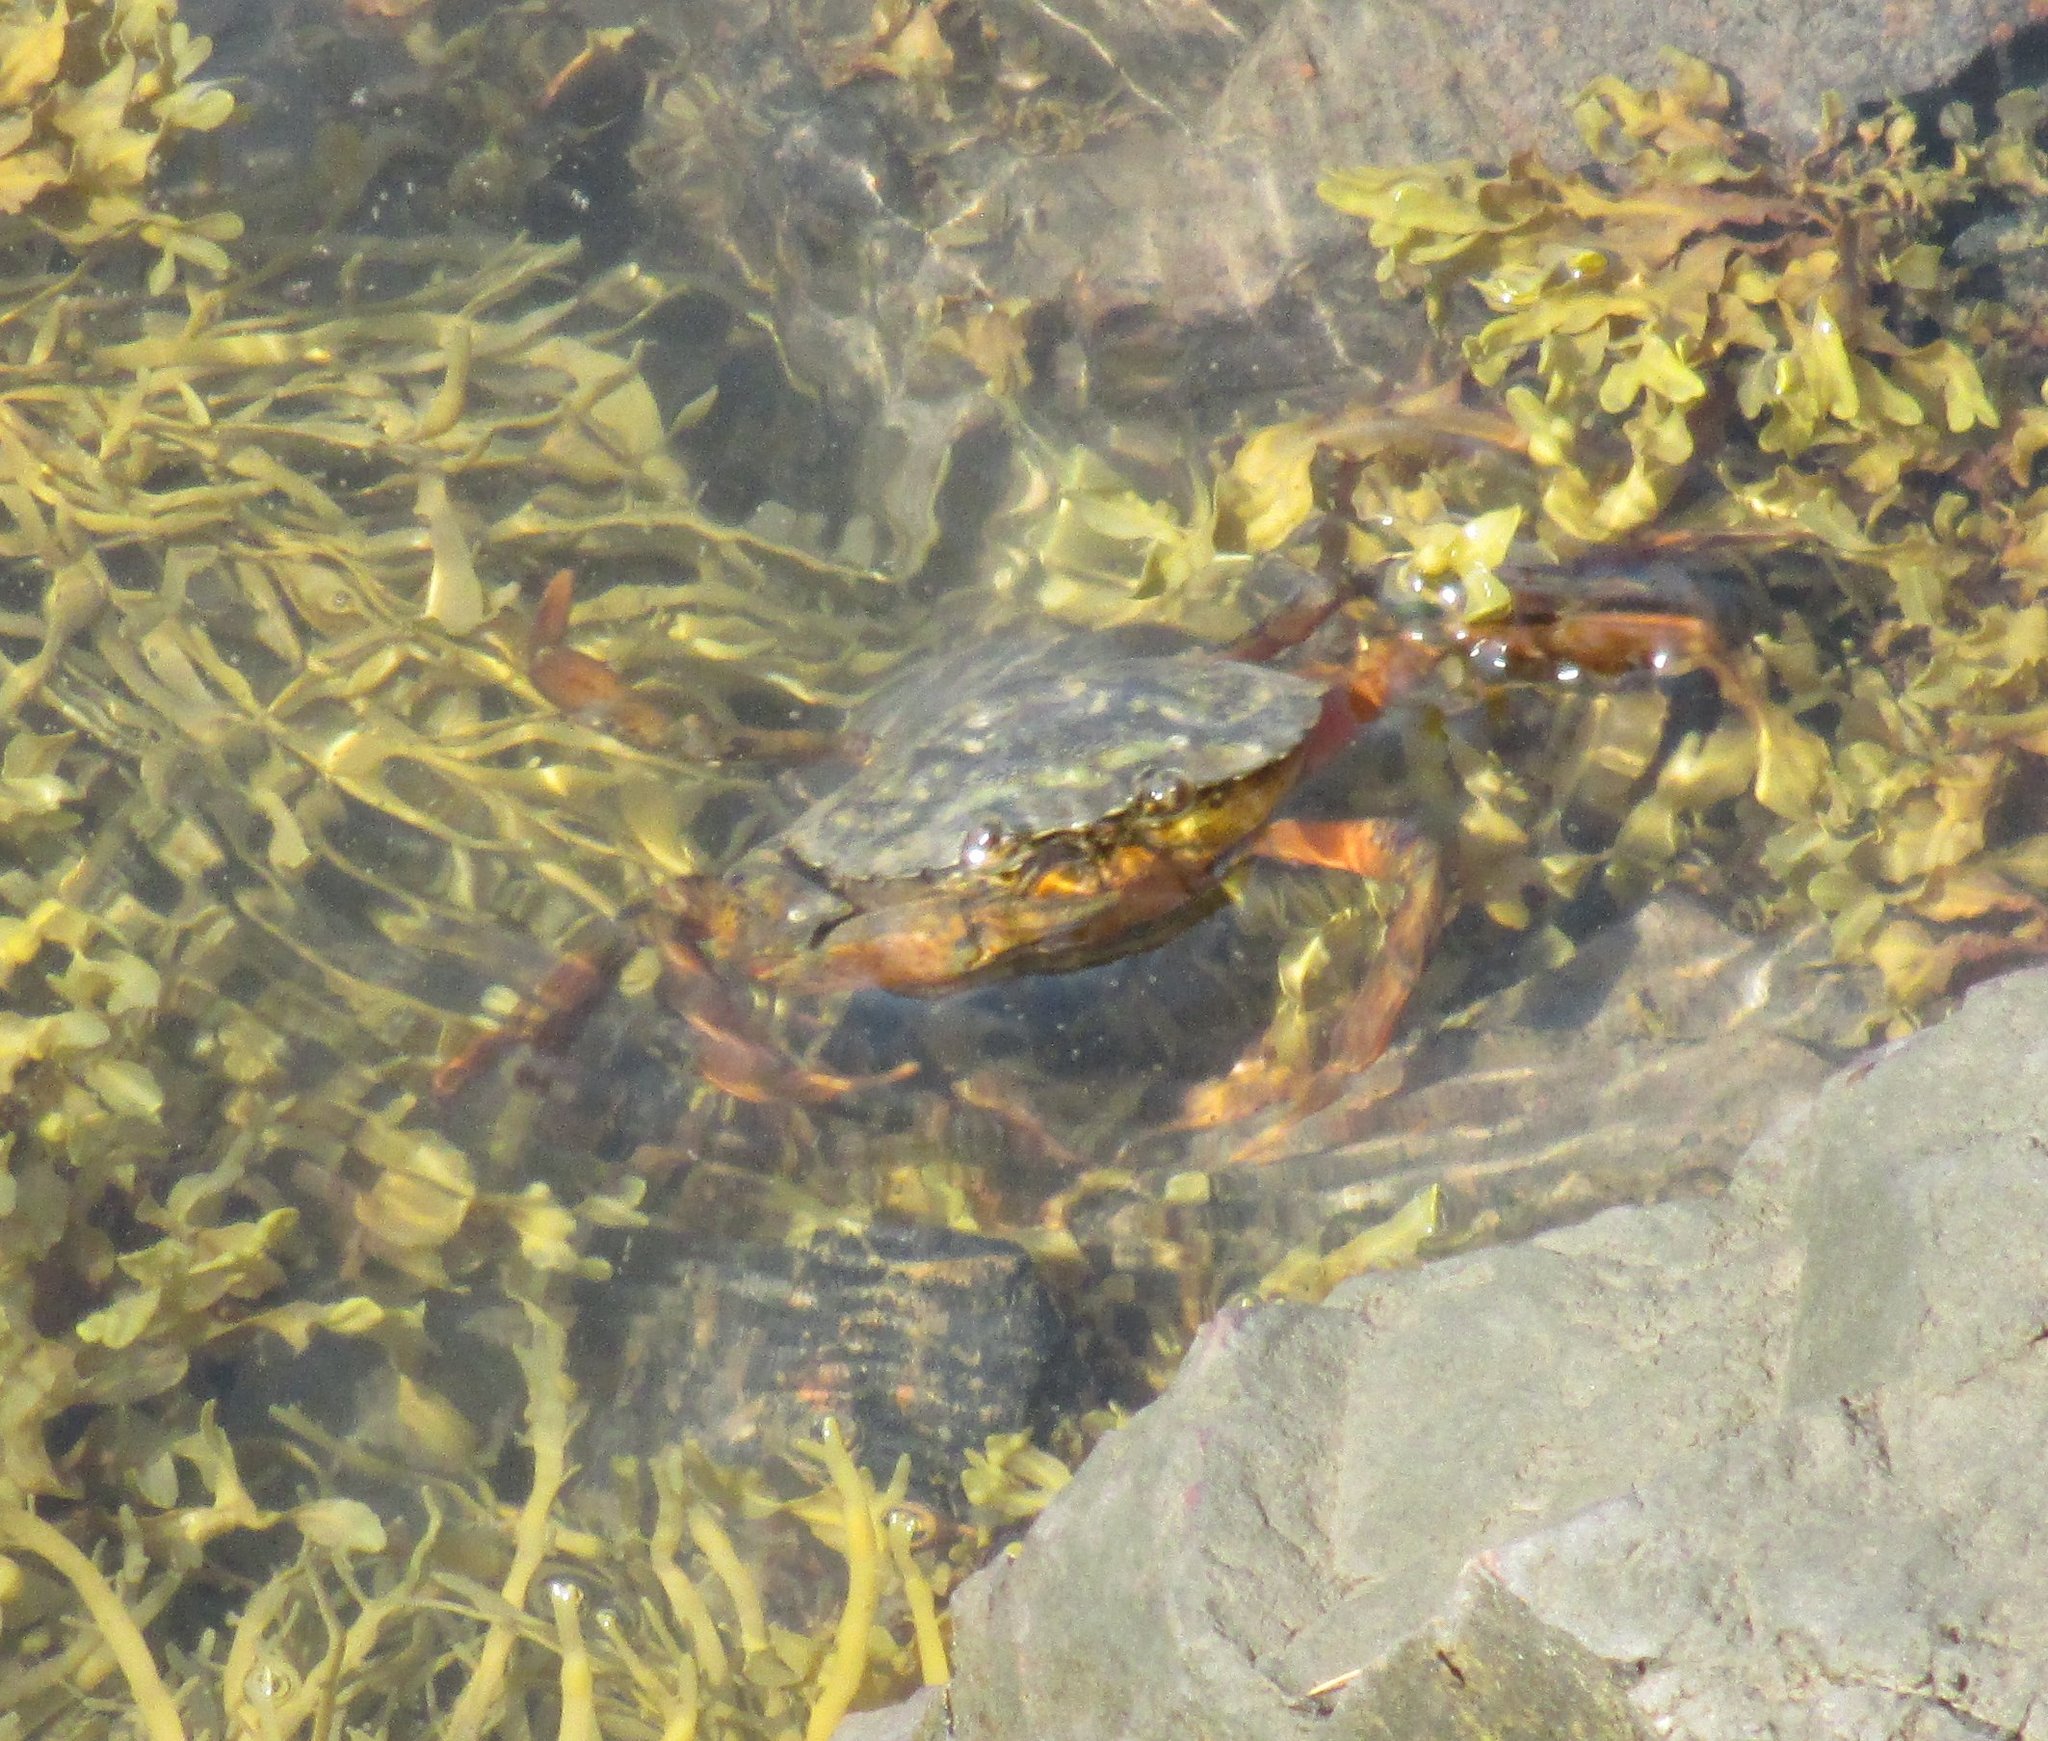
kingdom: Animalia
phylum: Arthropoda
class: Malacostraca
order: Decapoda
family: Carcinidae
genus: Carcinus
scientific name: Carcinus maenas
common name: European green crab
